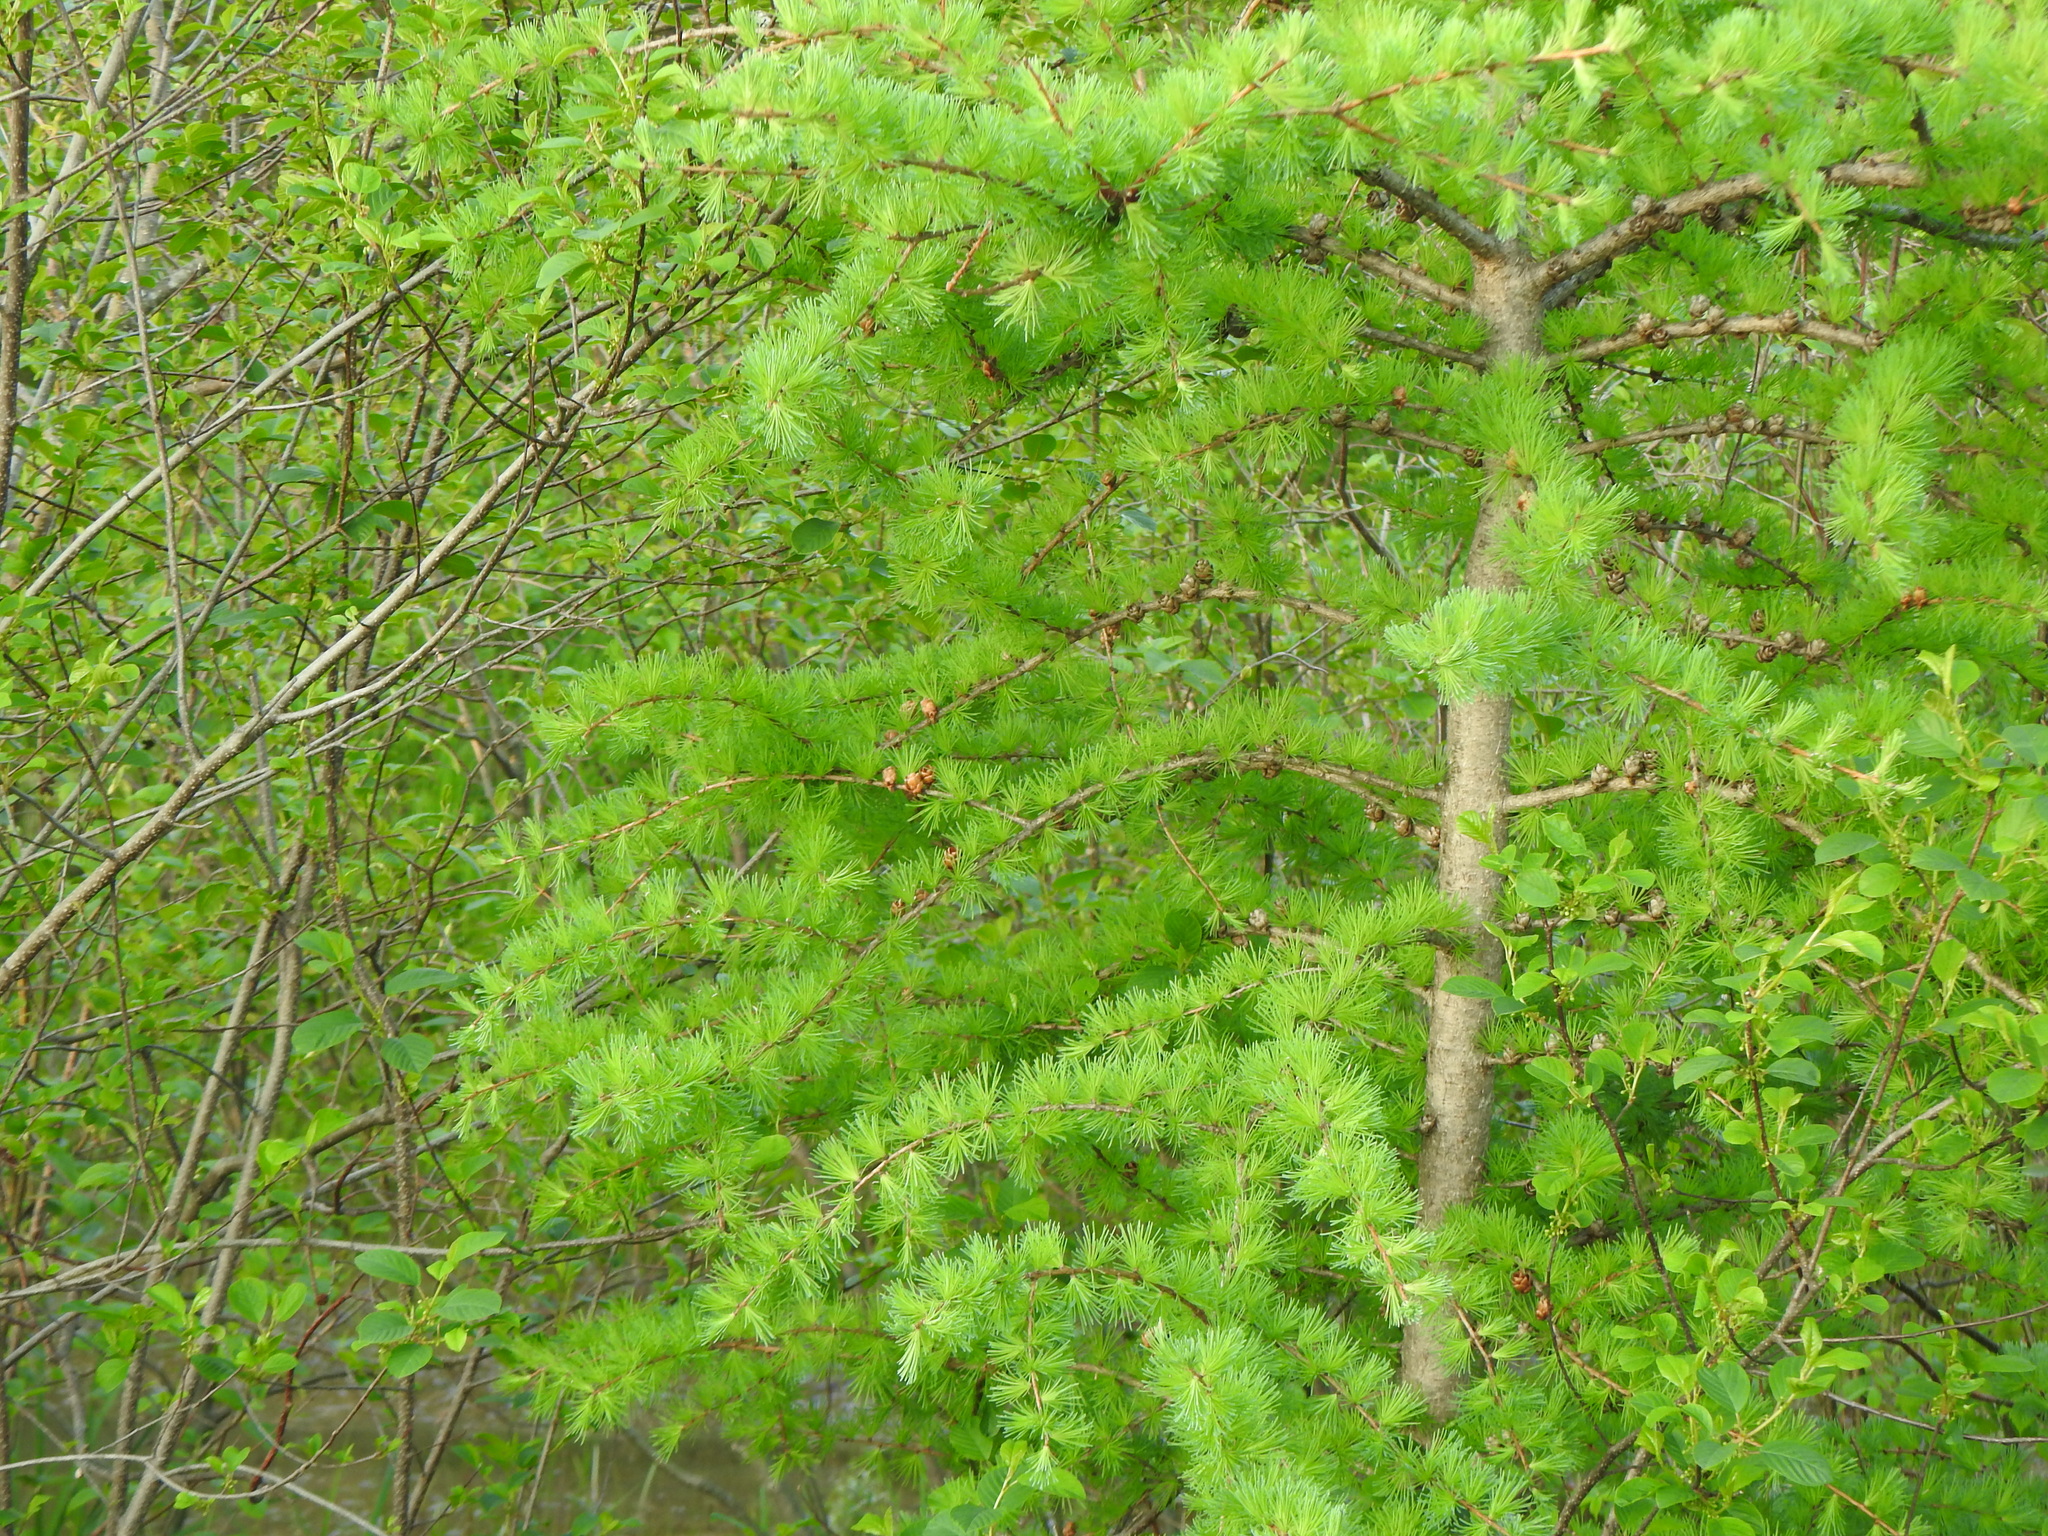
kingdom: Plantae
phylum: Tracheophyta
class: Pinopsida
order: Pinales
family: Pinaceae
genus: Larix
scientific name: Larix laricina
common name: American larch
